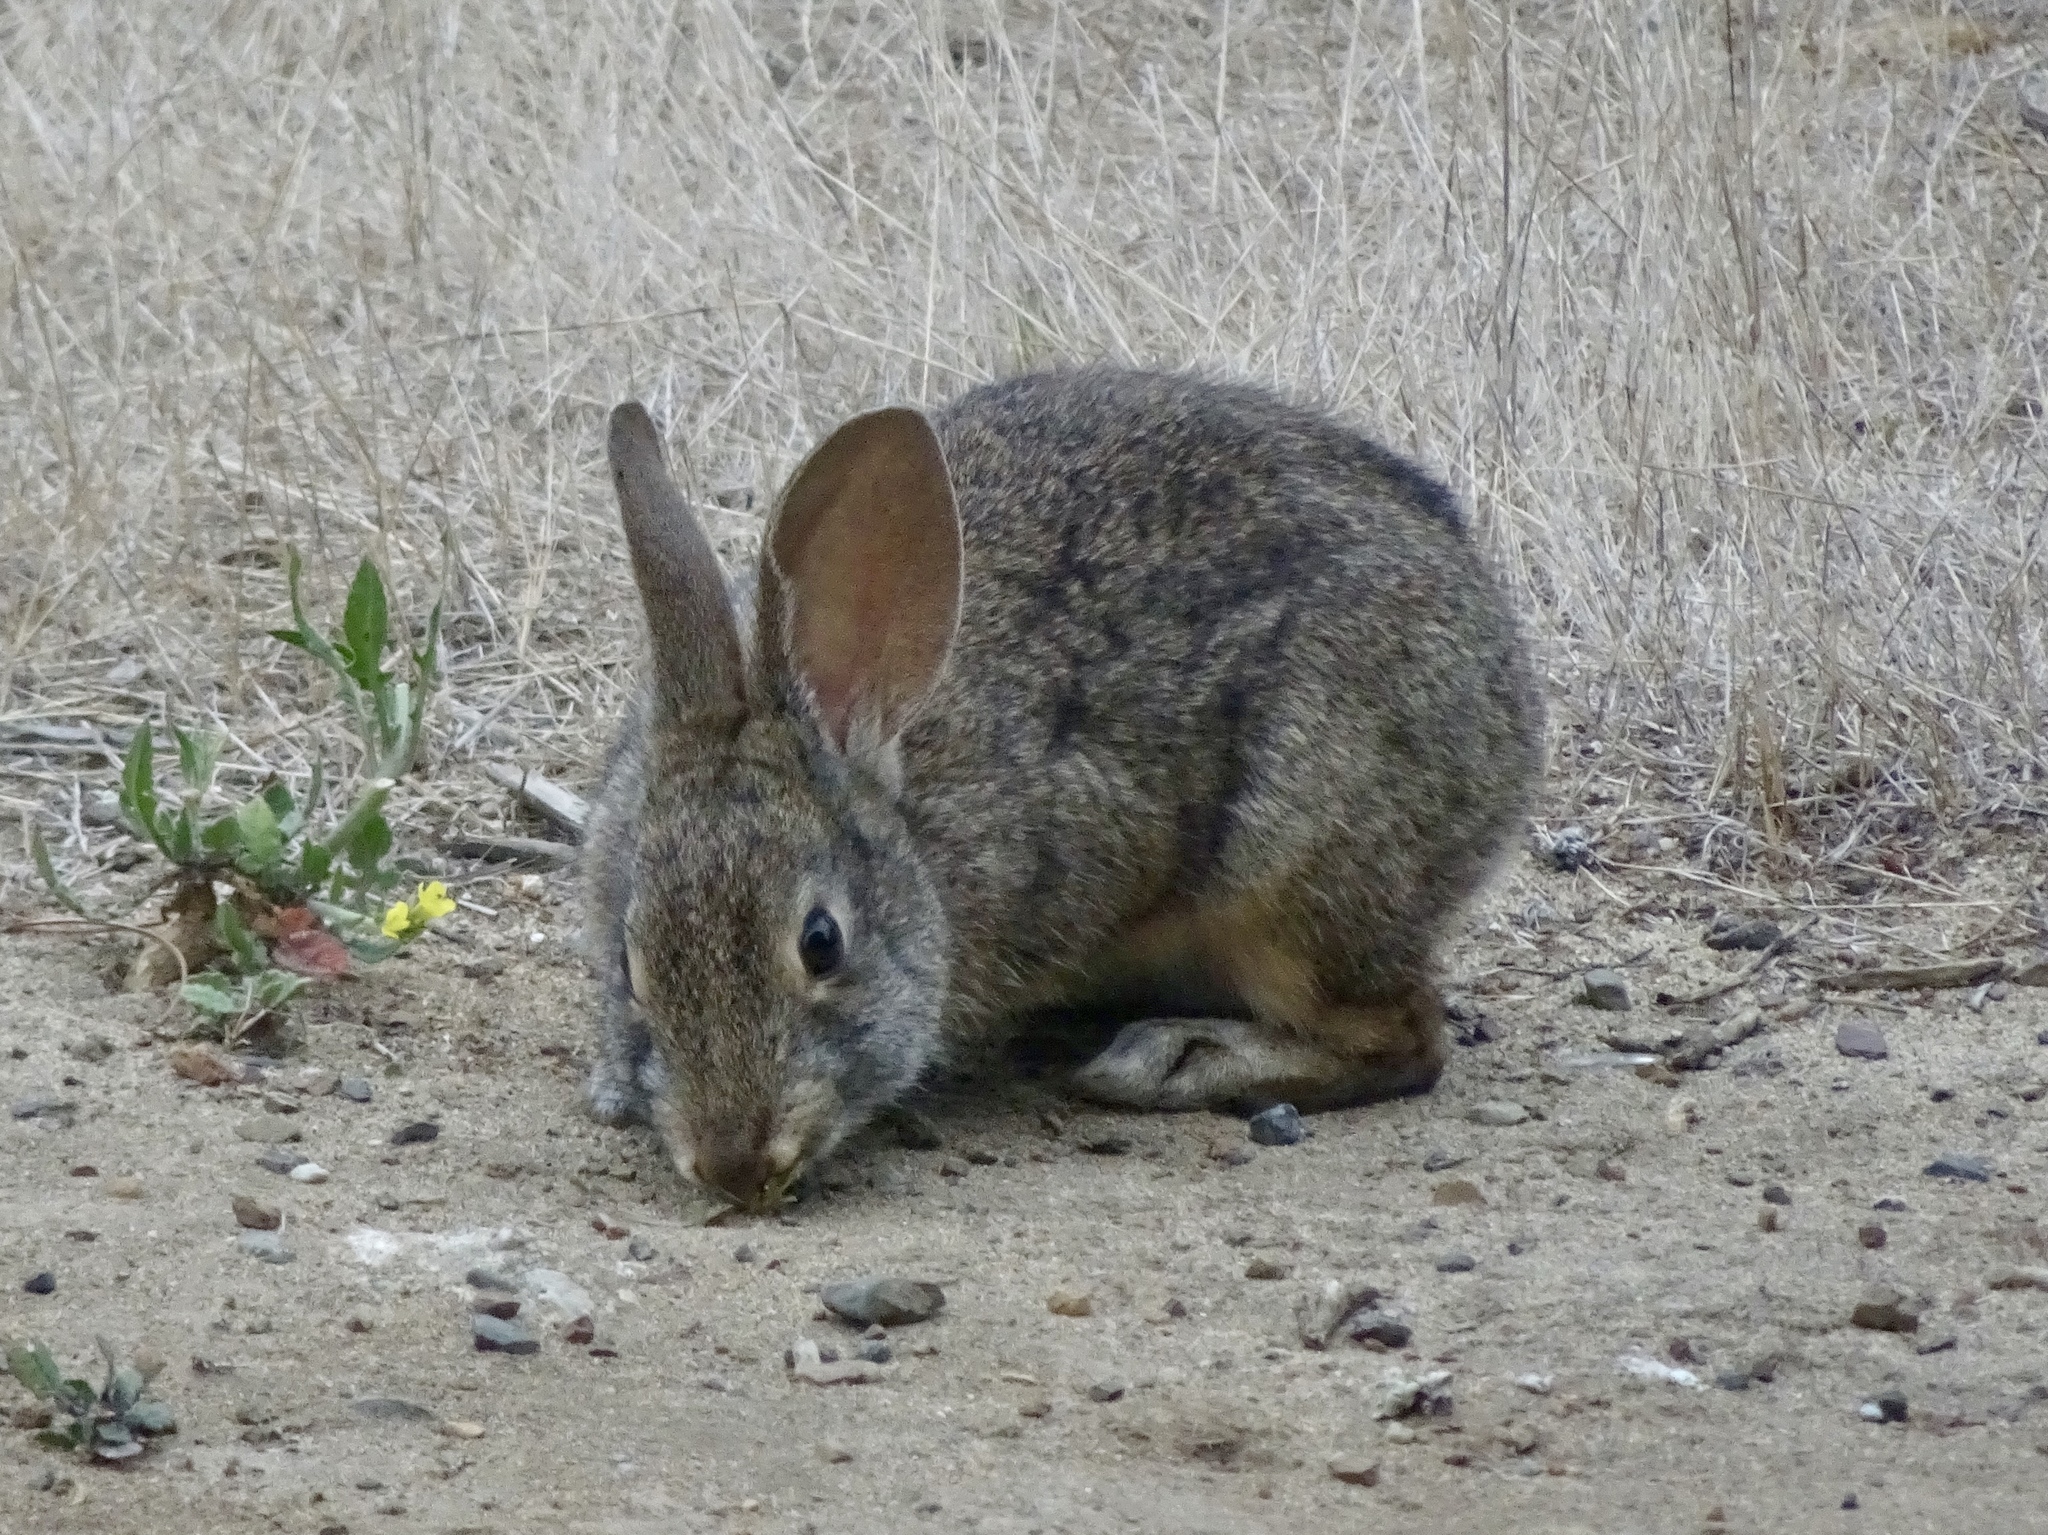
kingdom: Animalia
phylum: Chordata
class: Mammalia
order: Lagomorpha
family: Leporidae
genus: Sylvilagus
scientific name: Sylvilagus bachmani
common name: Brush rabbit
